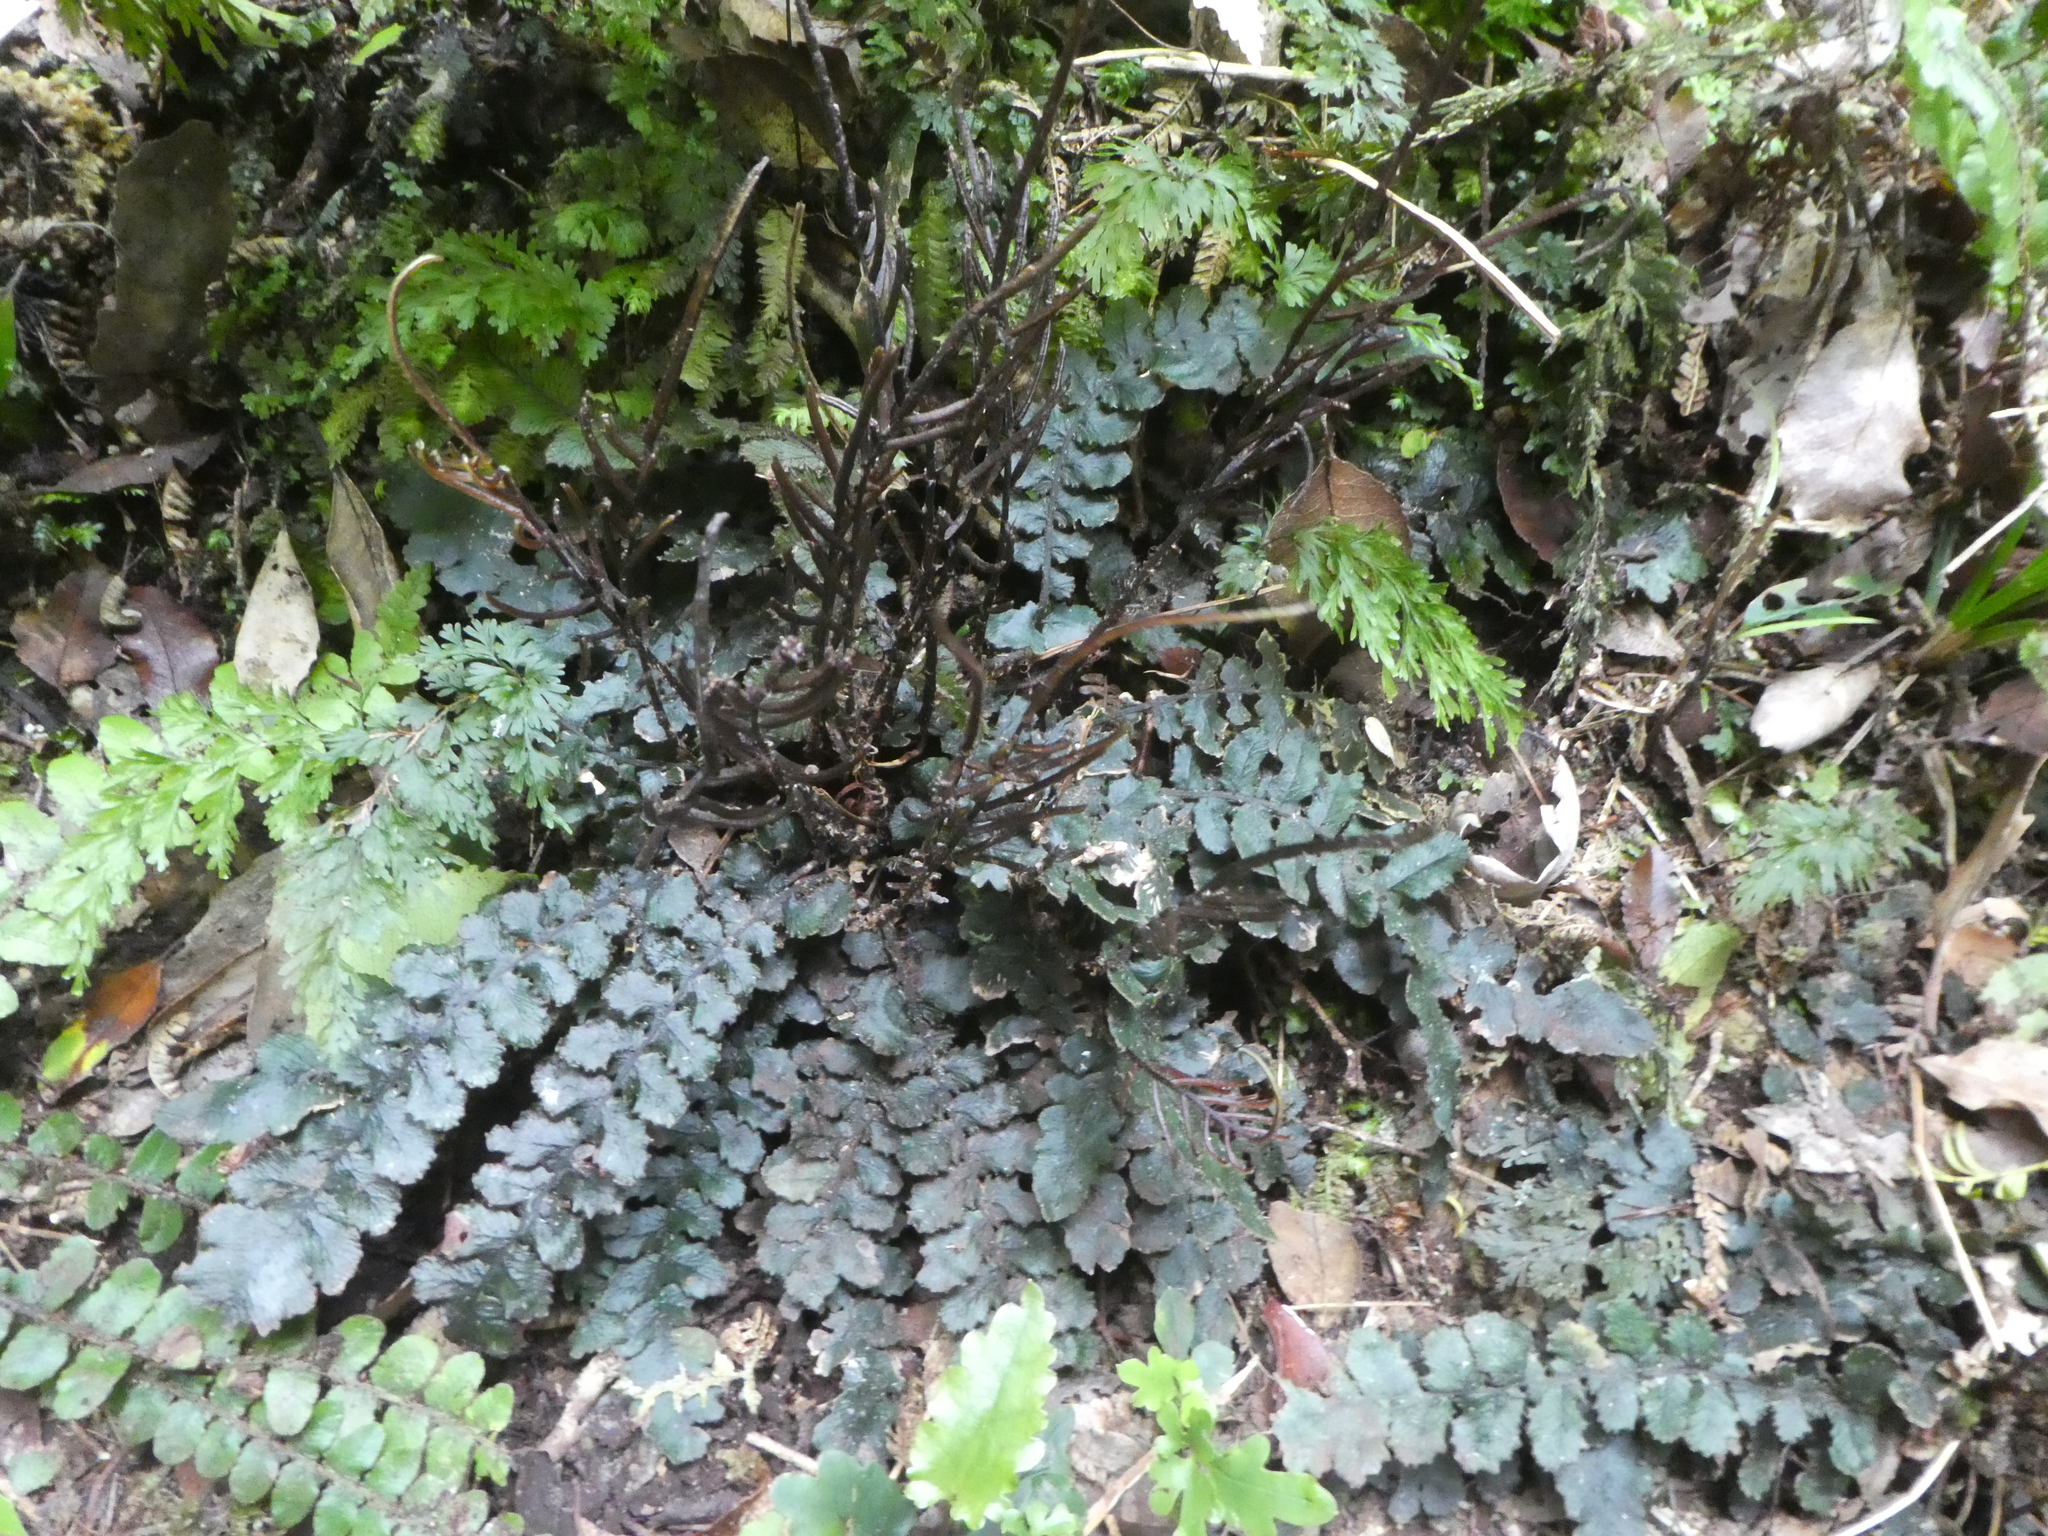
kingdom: Plantae
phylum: Tracheophyta
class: Polypodiopsida
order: Polypodiales
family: Blechnaceae
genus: Cranfillia
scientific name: Cranfillia nigra
